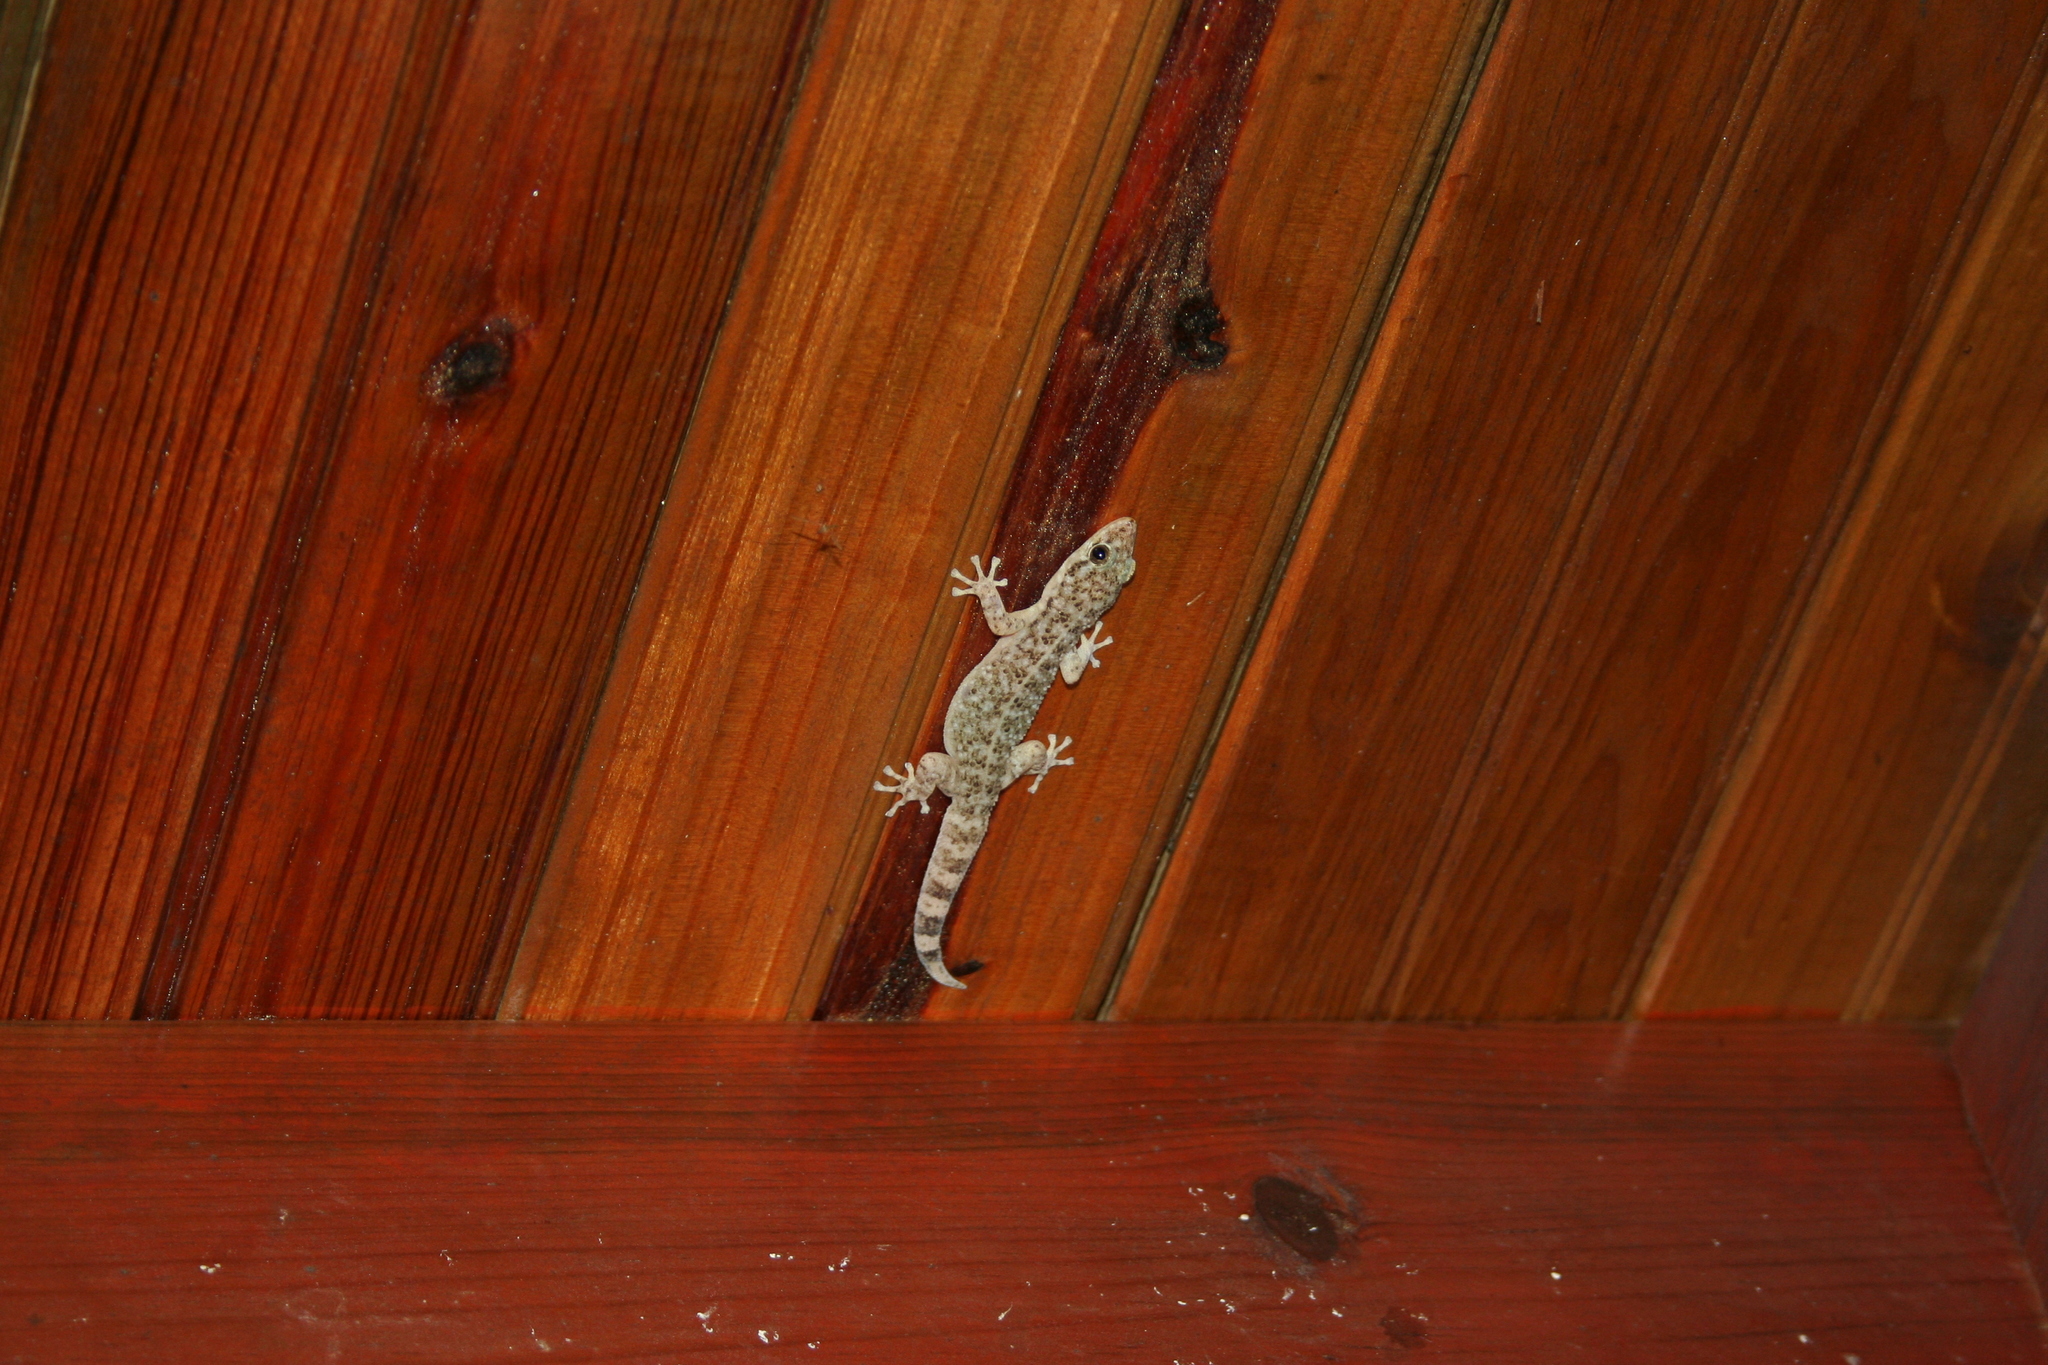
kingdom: Animalia
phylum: Chordata
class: Squamata
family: Phyllodactylidae
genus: Phyllodactylus
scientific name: Phyllodactylus tuberculosus
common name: Yellowbelly  gecko
